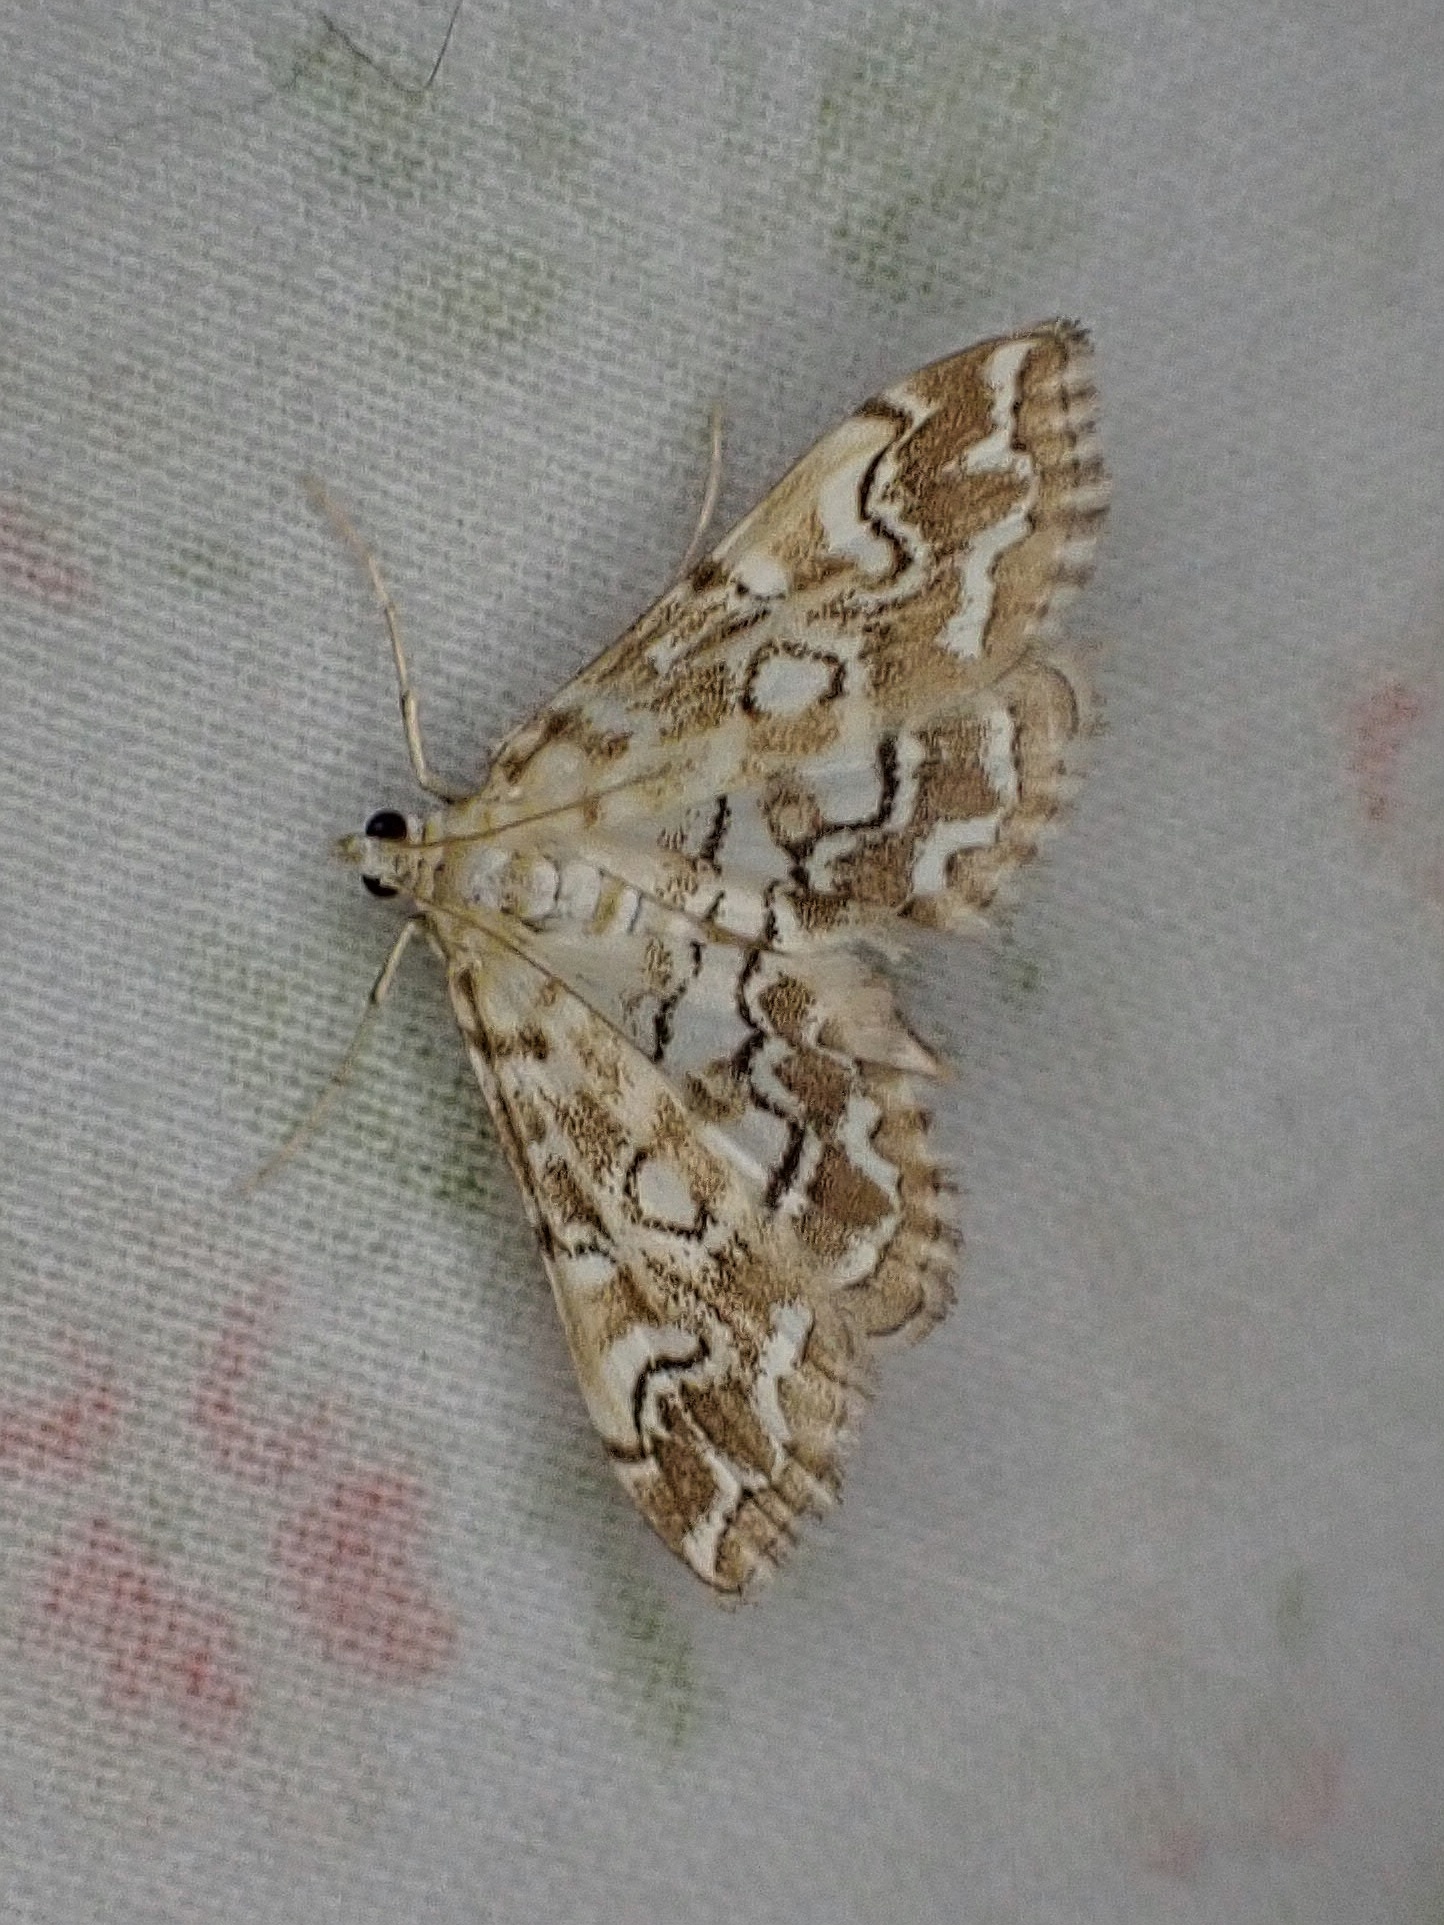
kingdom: Animalia
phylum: Arthropoda
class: Insecta
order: Lepidoptera
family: Crambidae
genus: Elophila
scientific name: Elophila icciusalis
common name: Pondside pyralid moth
